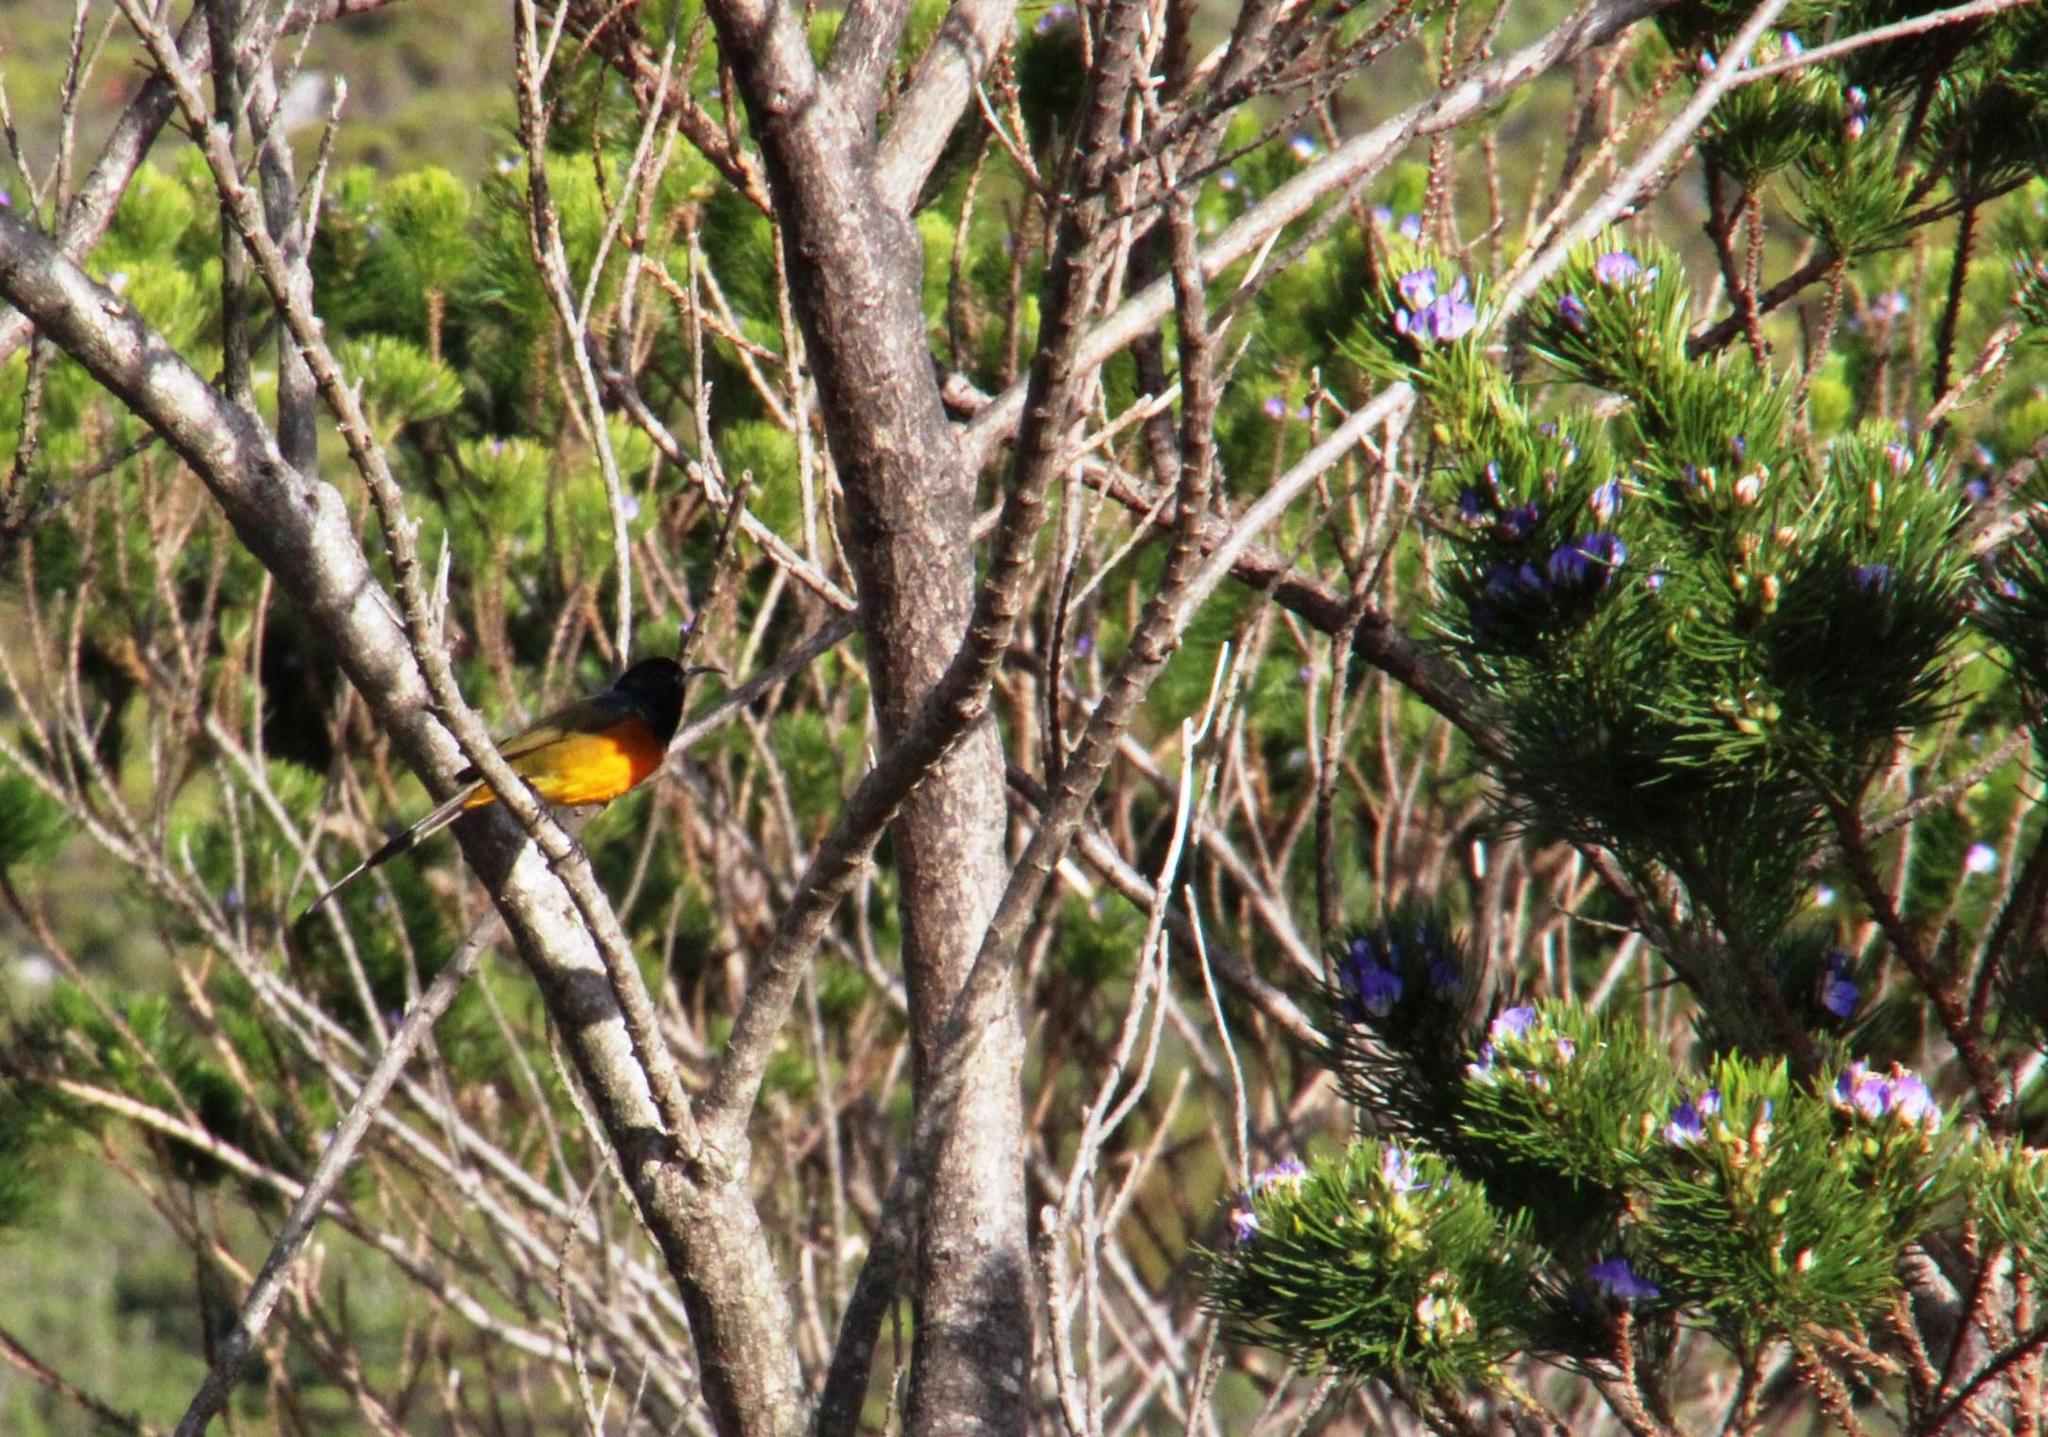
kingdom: Animalia
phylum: Chordata
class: Aves
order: Passeriformes
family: Nectariniidae
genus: Anthobaphes
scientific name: Anthobaphes violacea
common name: Orange-breasted sunbird
